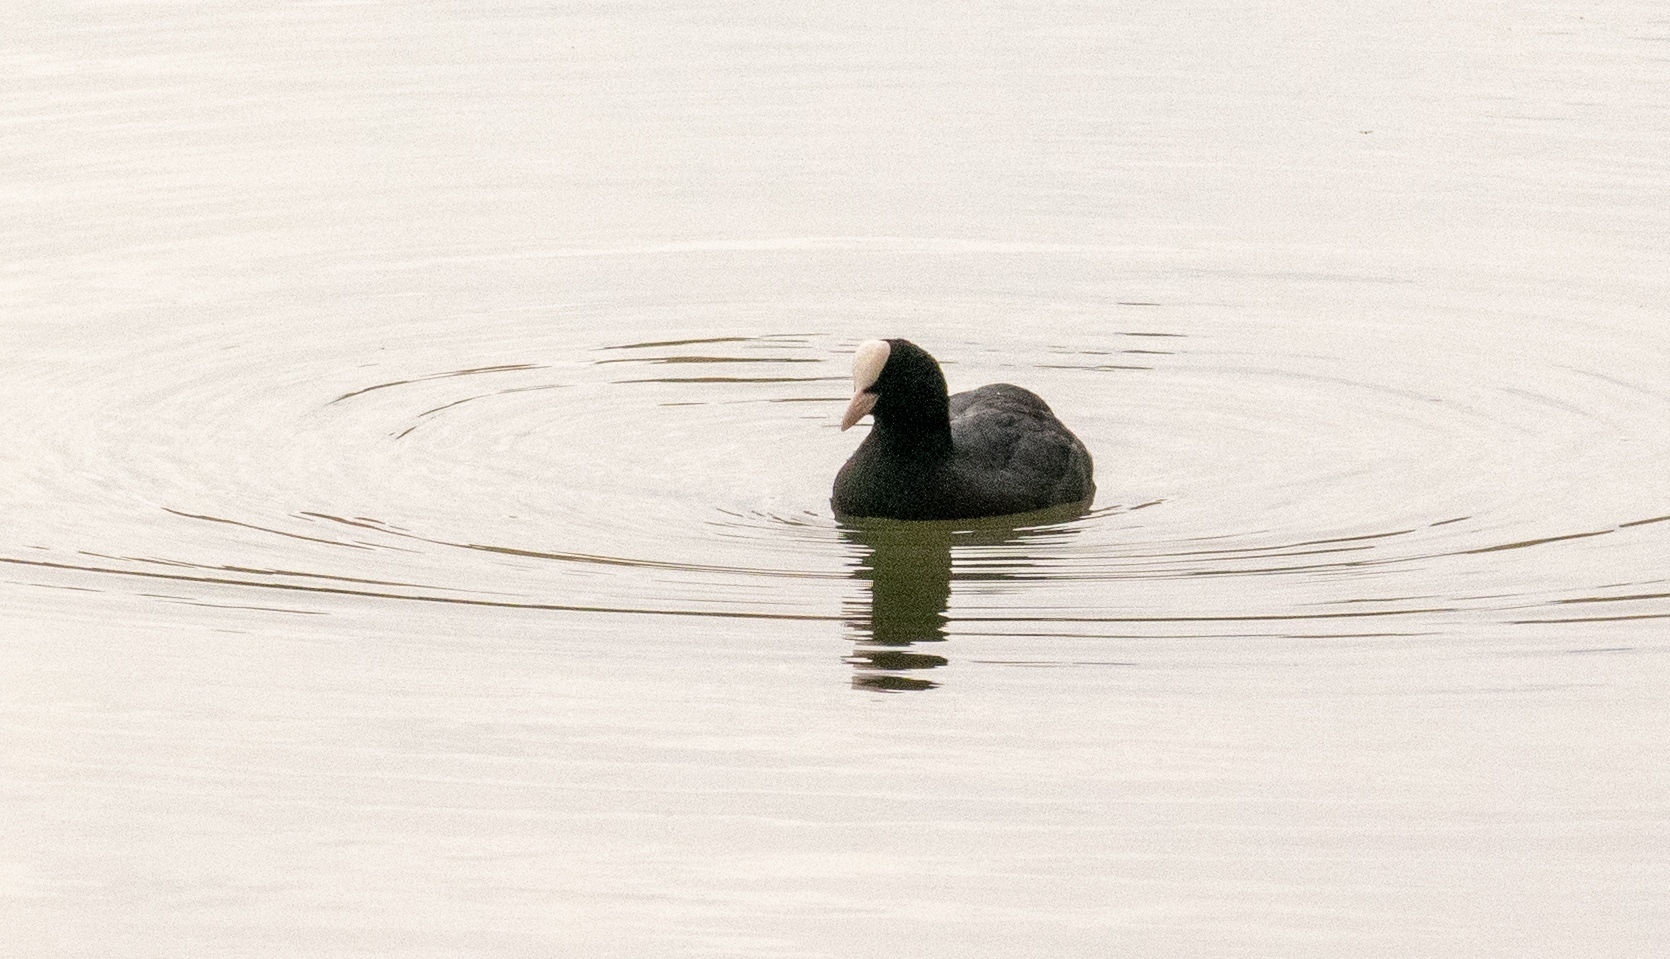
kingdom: Animalia
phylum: Chordata
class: Aves
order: Gruiformes
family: Rallidae
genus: Fulica
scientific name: Fulica atra
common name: Eurasian coot
